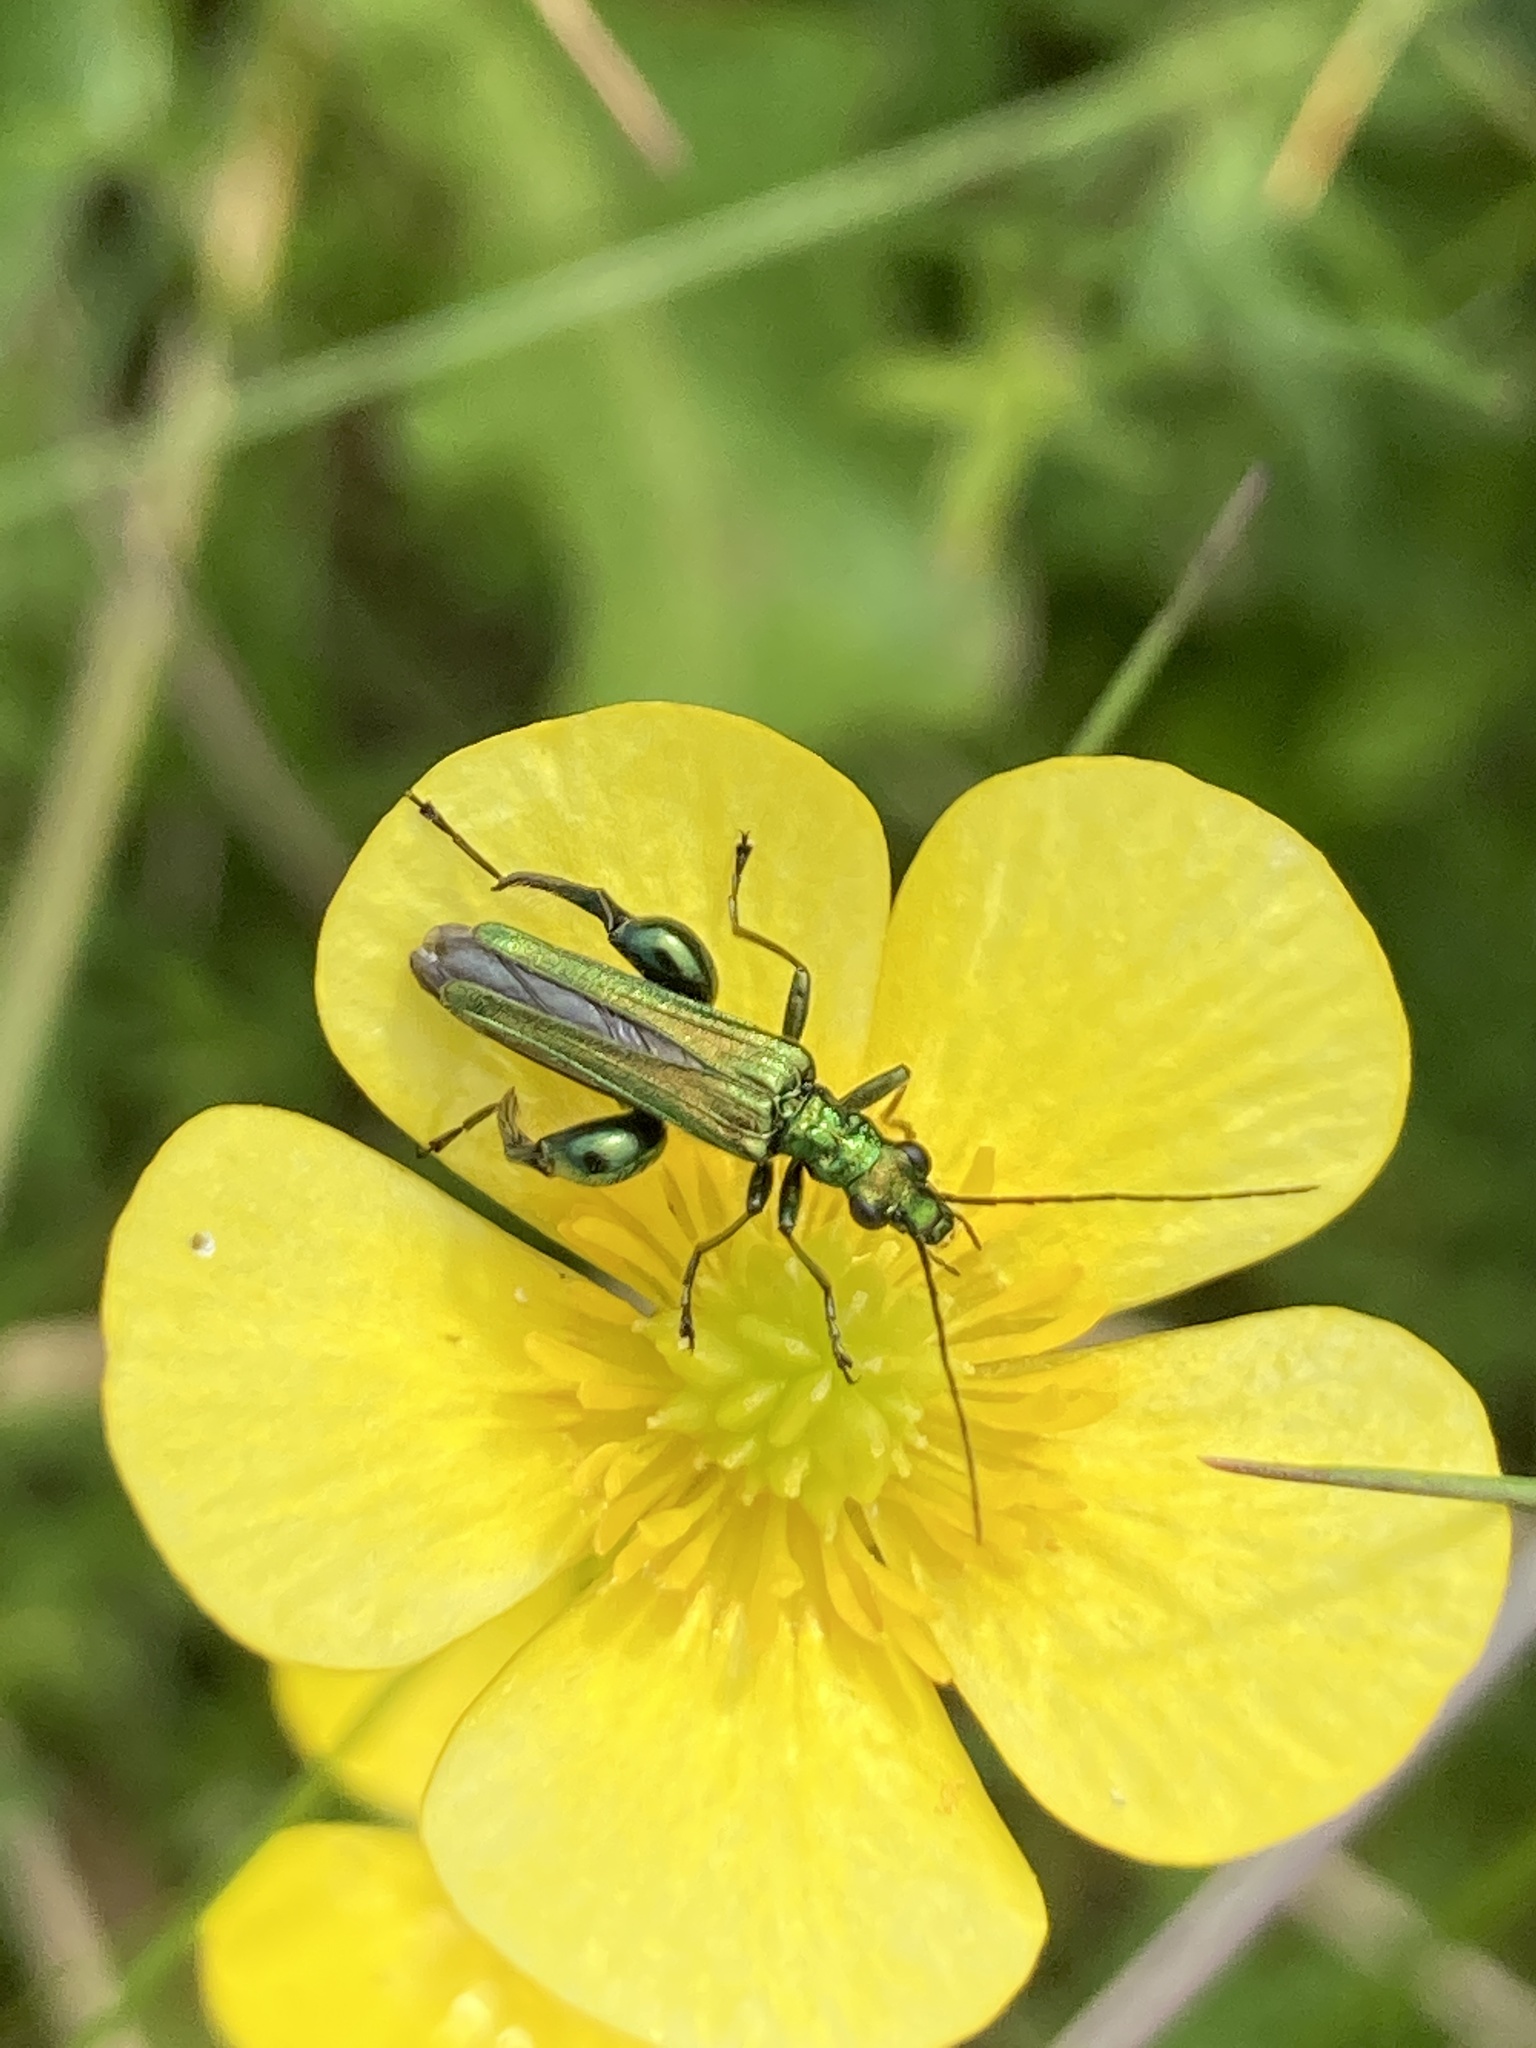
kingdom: Animalia
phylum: Arthropoda
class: Insecta
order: Coleoptera
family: Oedemeridae
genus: Oedemera
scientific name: Oedemera nobilis
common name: Swollen-thighed beetle
